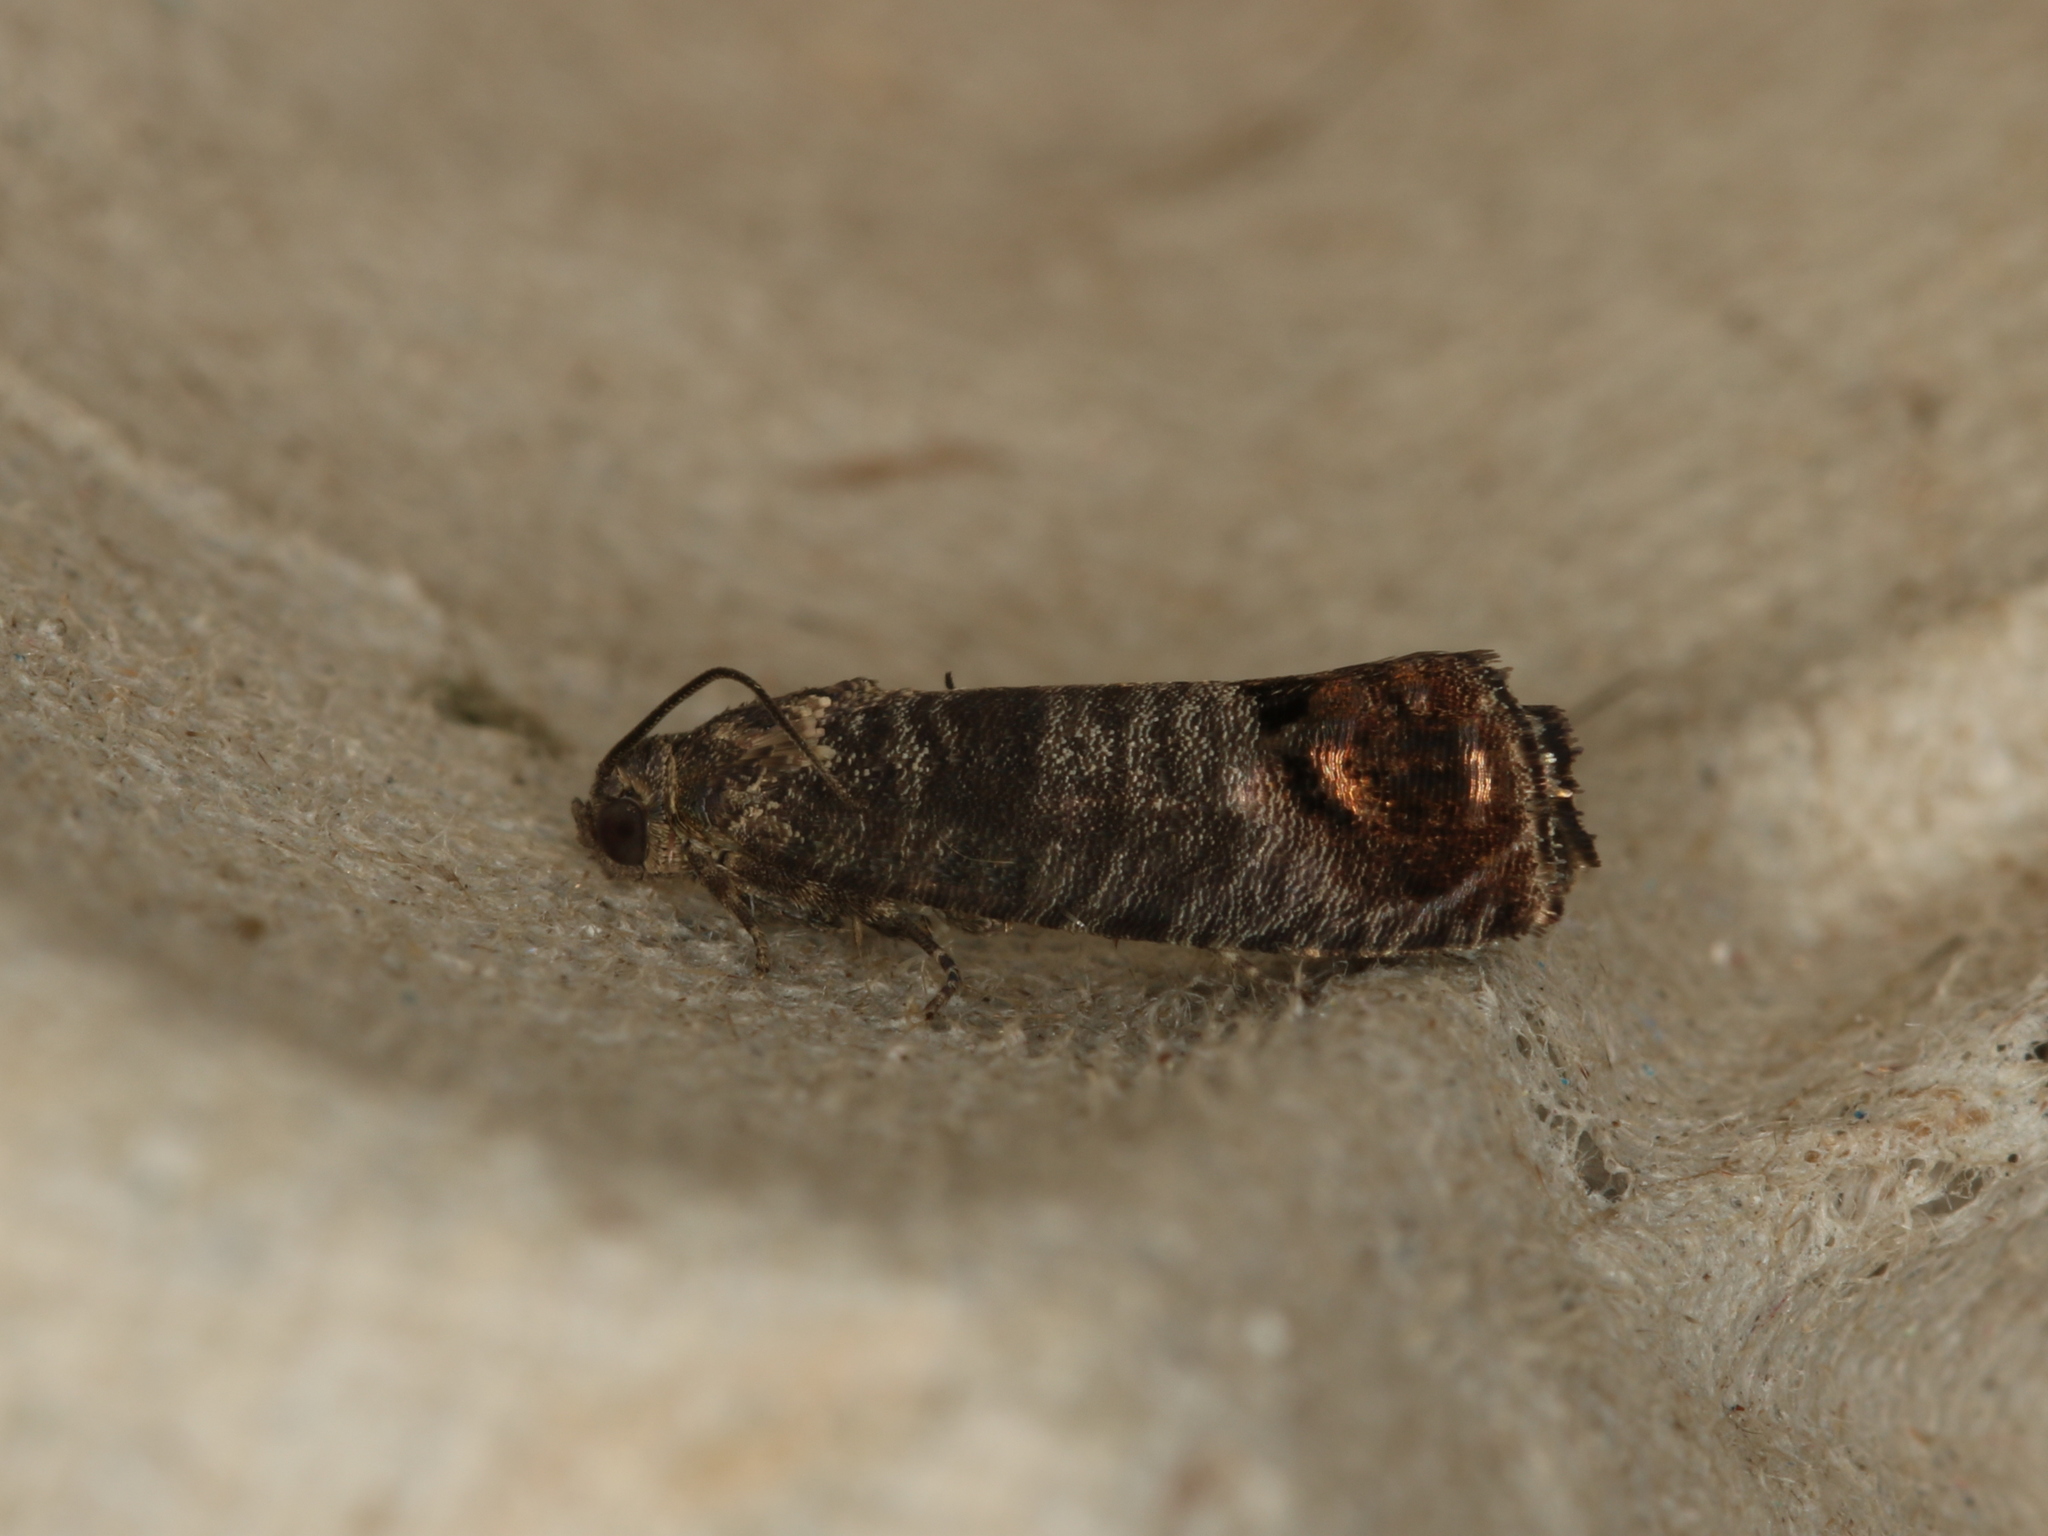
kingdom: Animalia
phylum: Arthropoda
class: Insecta
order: Lepidoptera
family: Tortricidae
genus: Cydia
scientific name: Cydia pomonella
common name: Codling moth
